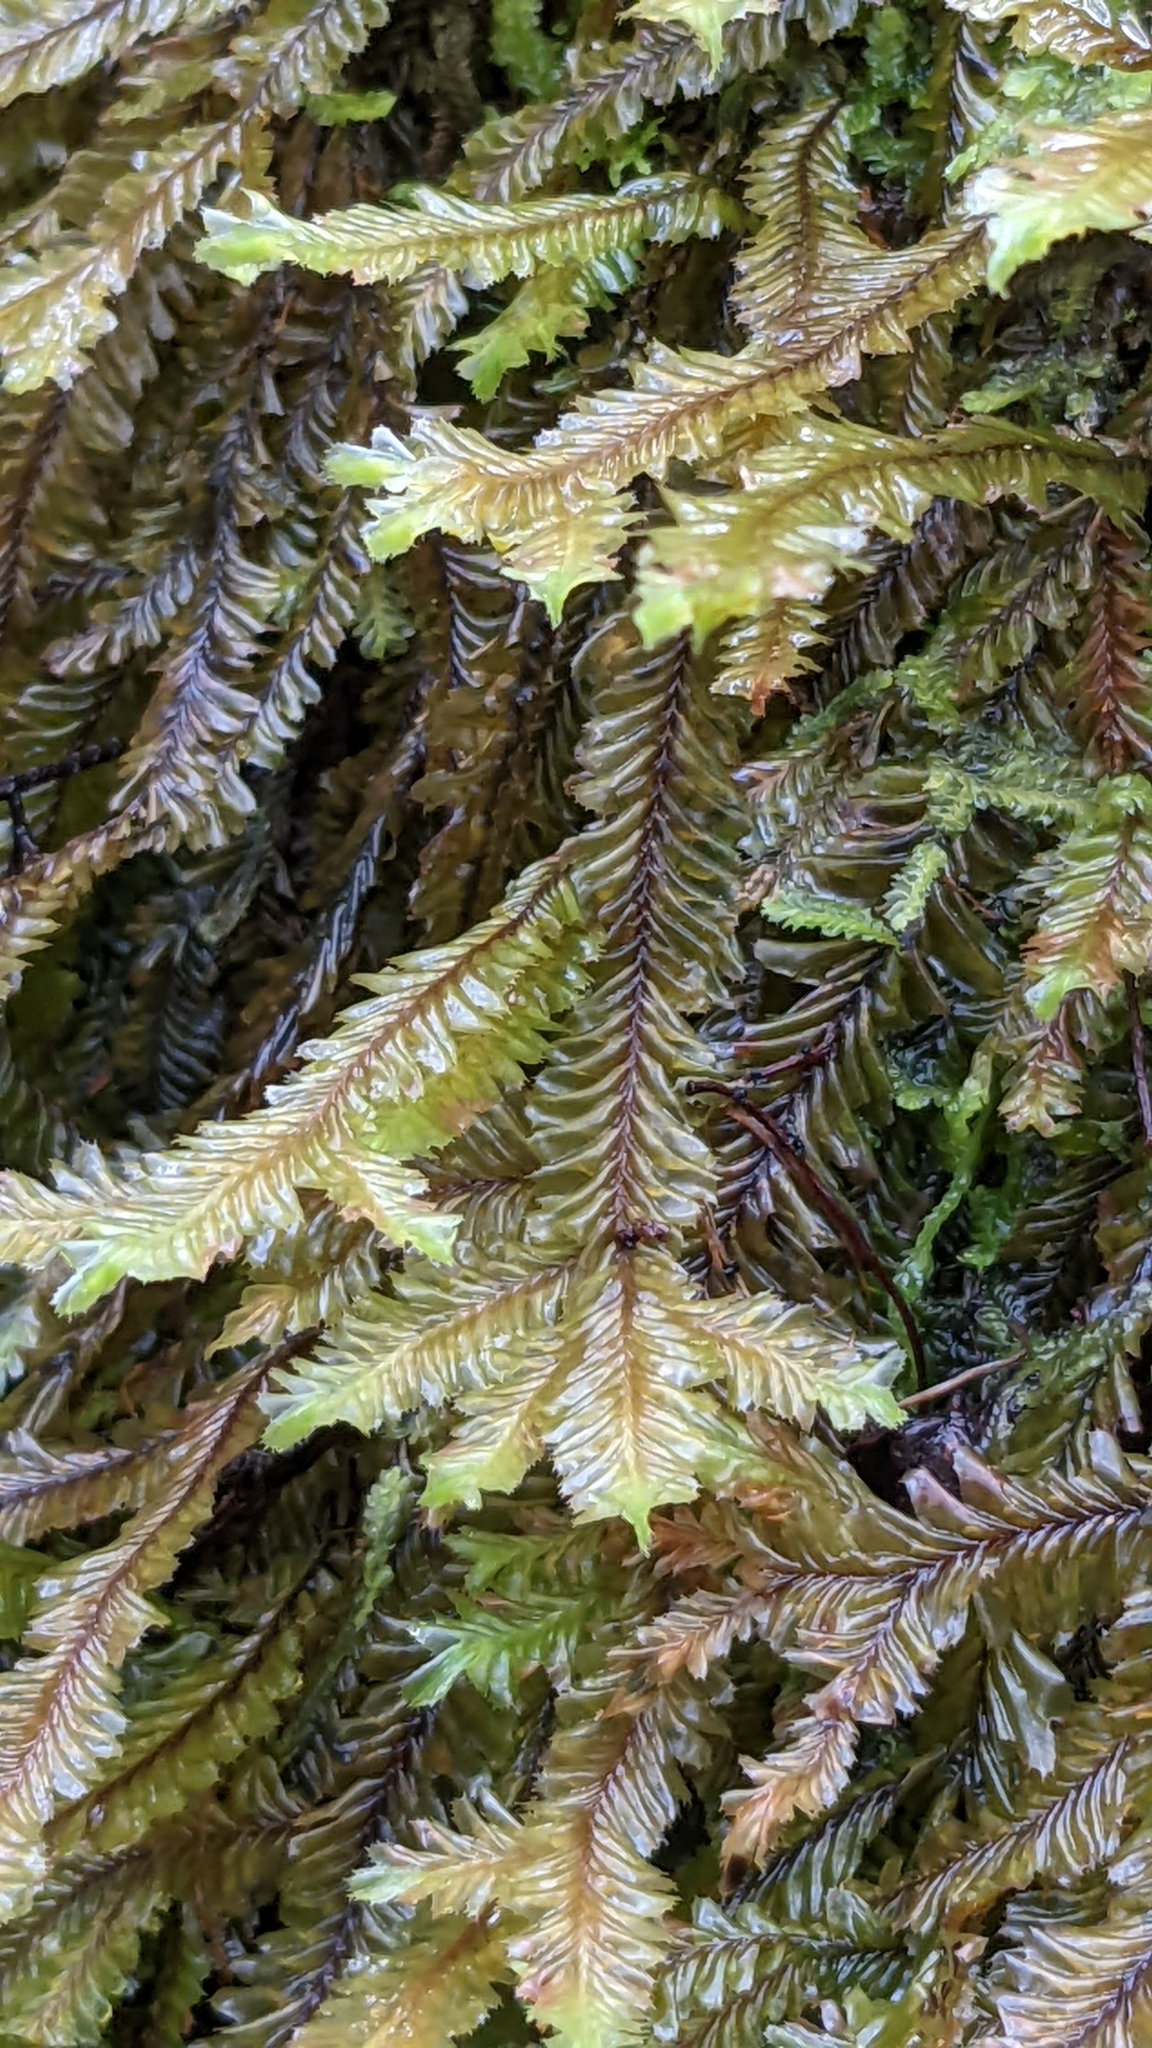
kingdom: Plantae
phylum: Marchantiophyta
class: Jungermanniopsida
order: Jungermanniales
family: Plagiochilaceae
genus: Plagiochila
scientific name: Plagiochila trispicata
